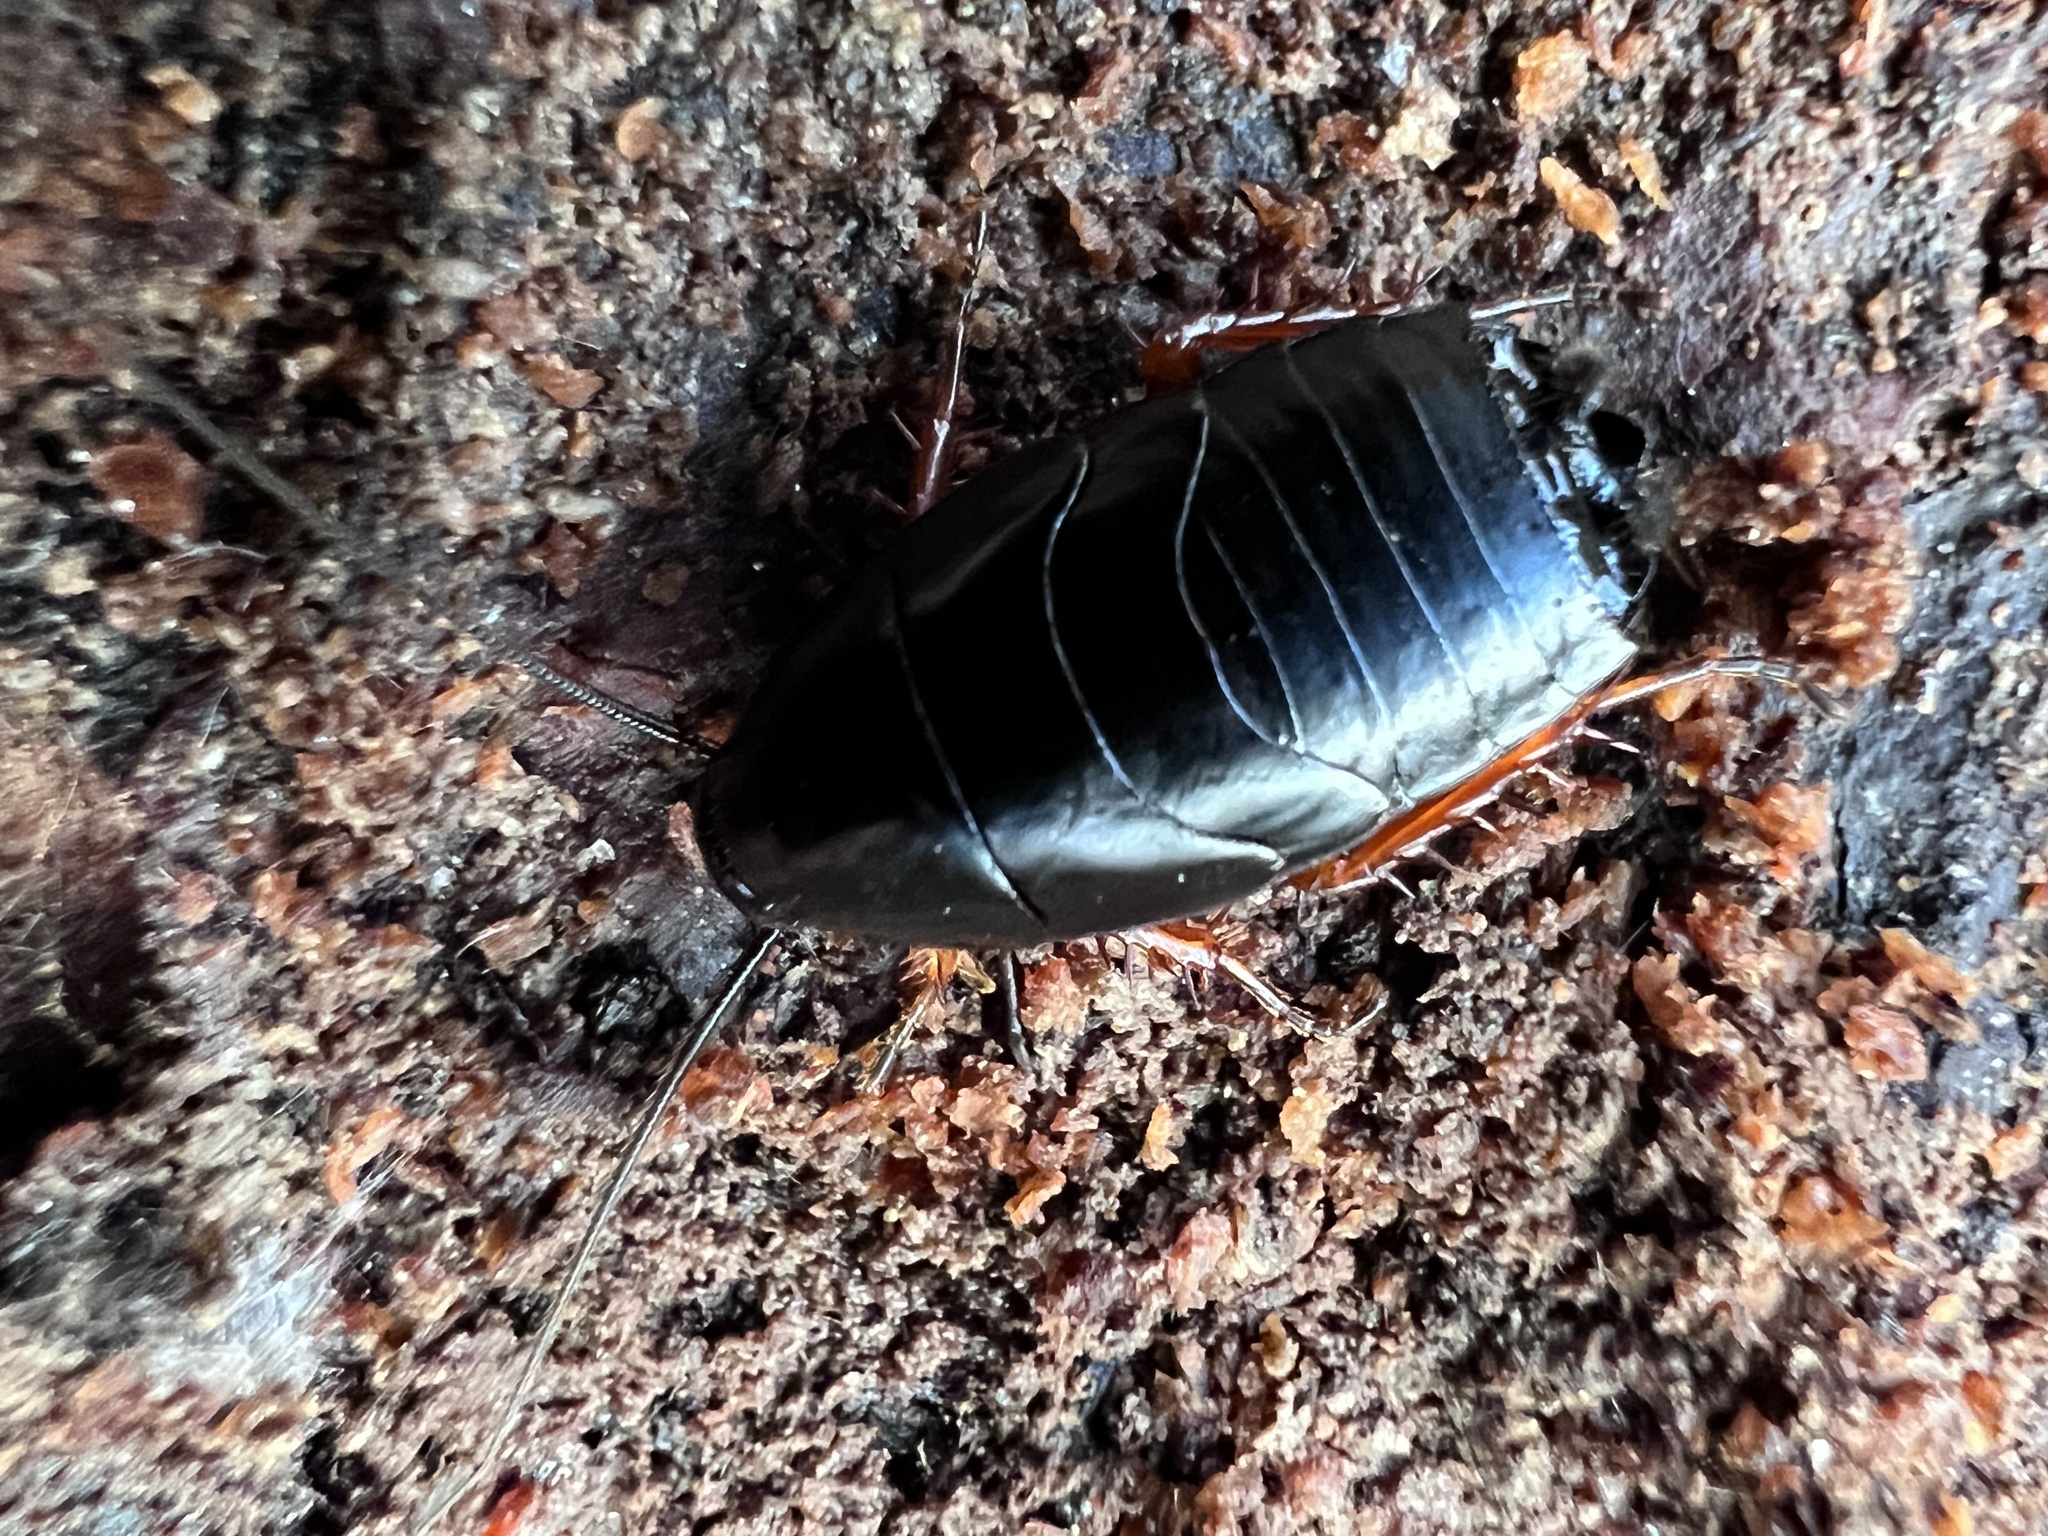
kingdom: Animalia
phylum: Arthropoda
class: Insecta
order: Blattodea
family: Ectobiidae
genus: Ischnoptera
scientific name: Ischnoptera deropeltiformis
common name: Dark wood cockroach
